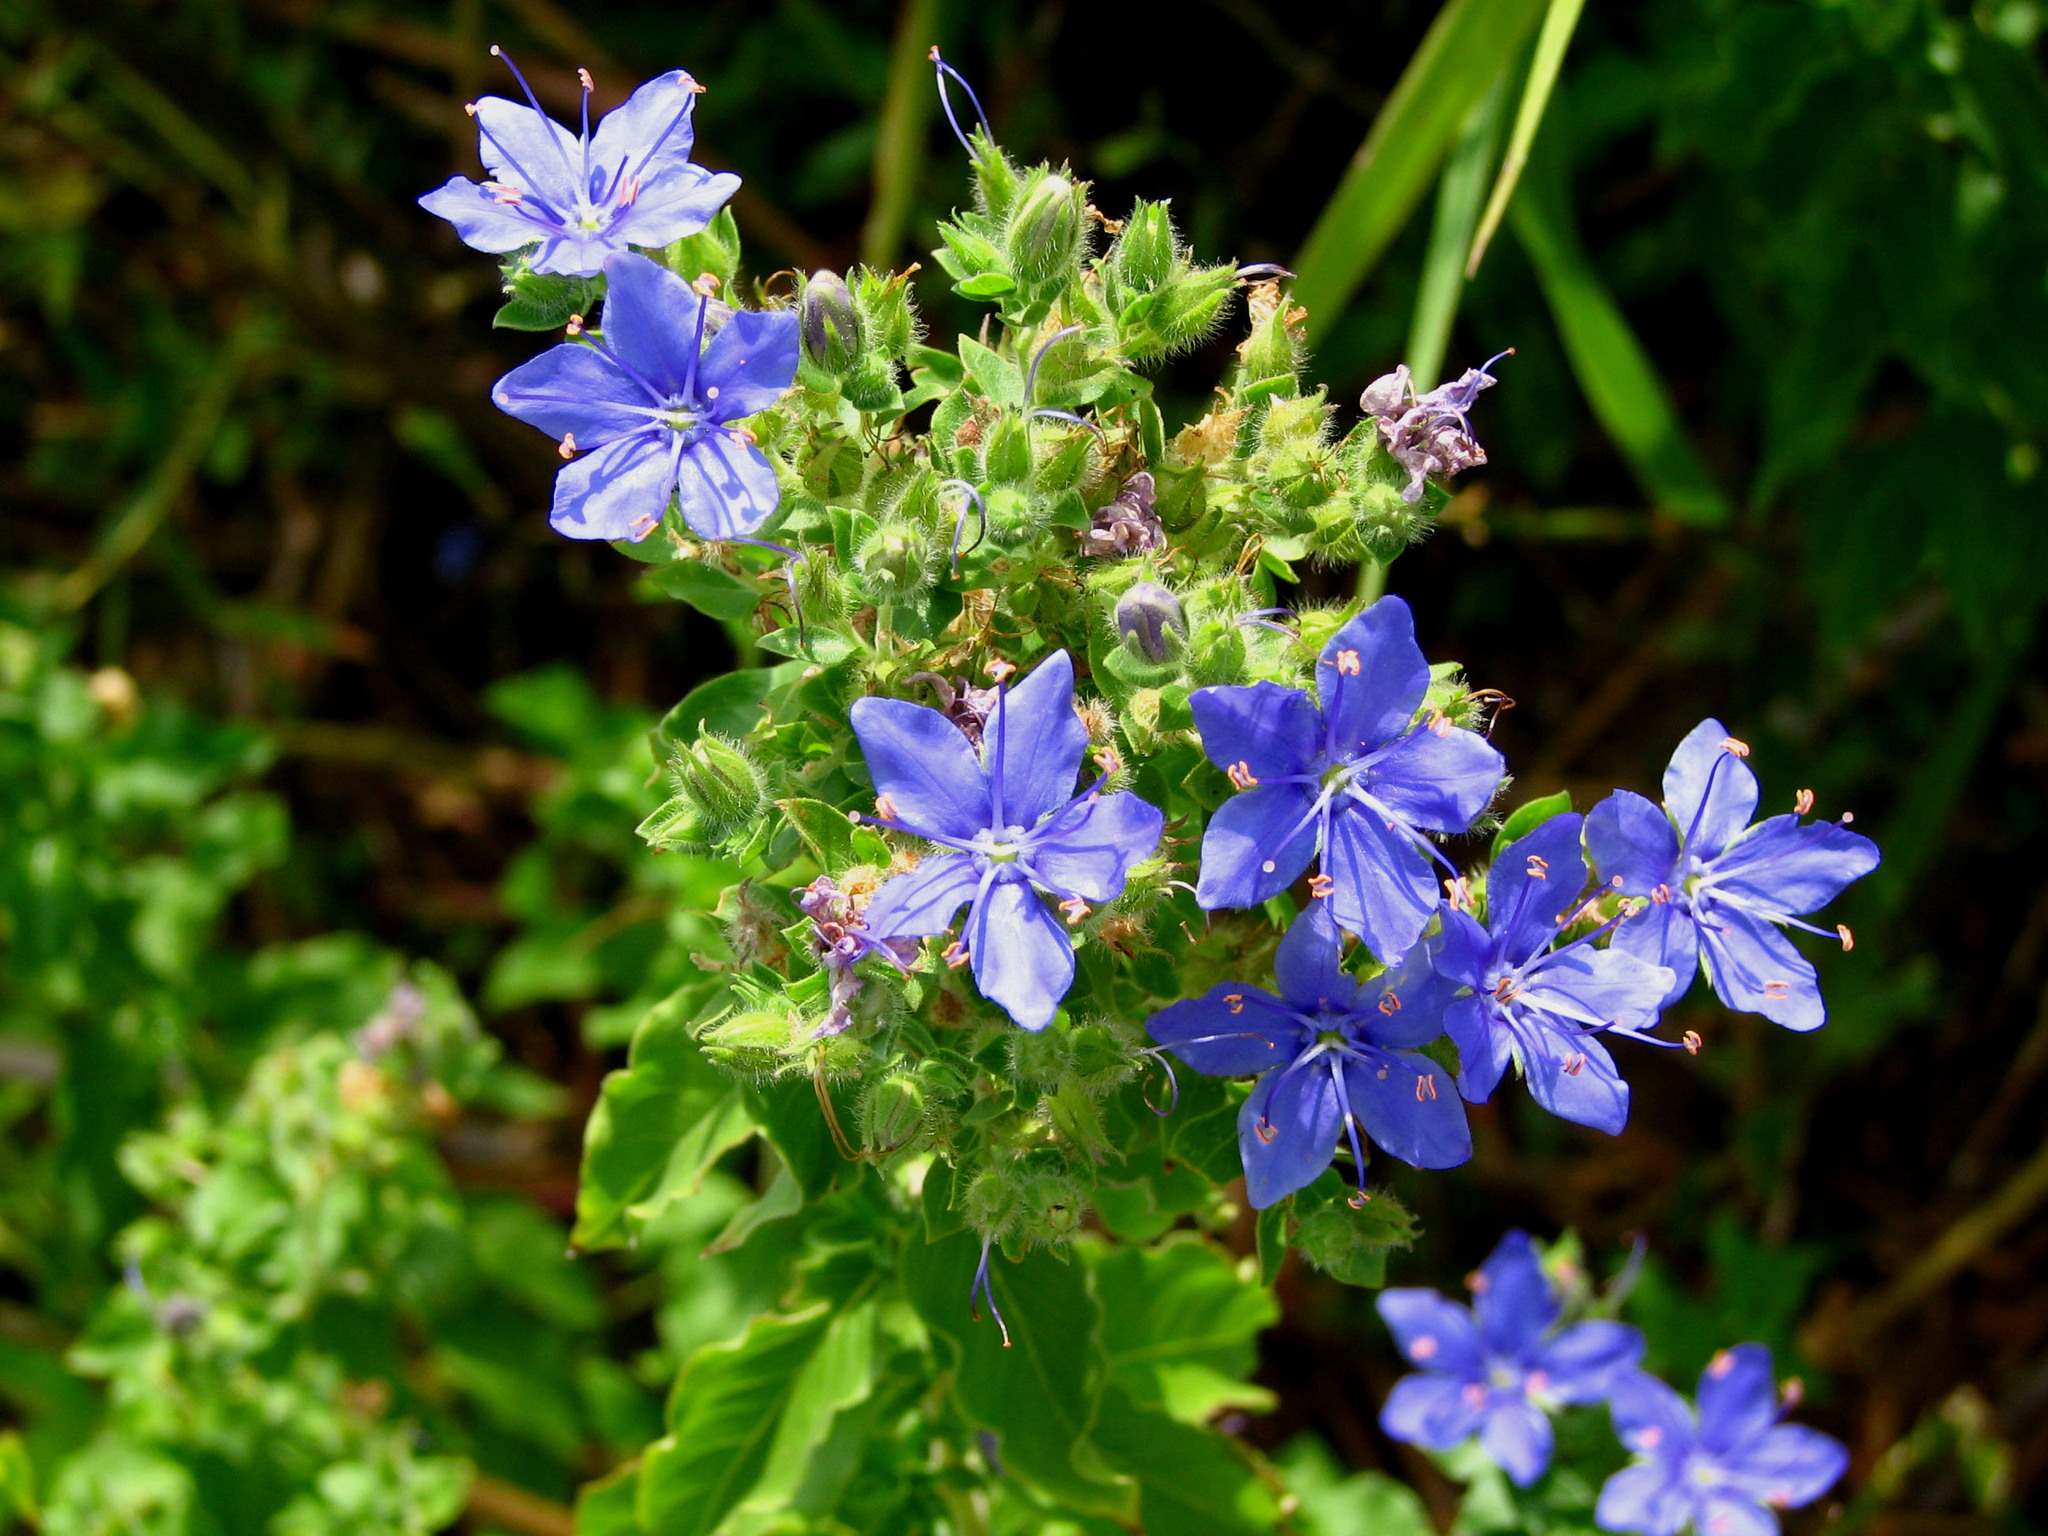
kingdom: Plantae
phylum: Tracheophyta
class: Magnoliopsida
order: Solanales
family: Hydroleaceae
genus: Hydrolea
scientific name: Hydrolea ovata
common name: Ovate false fiddleleaf
